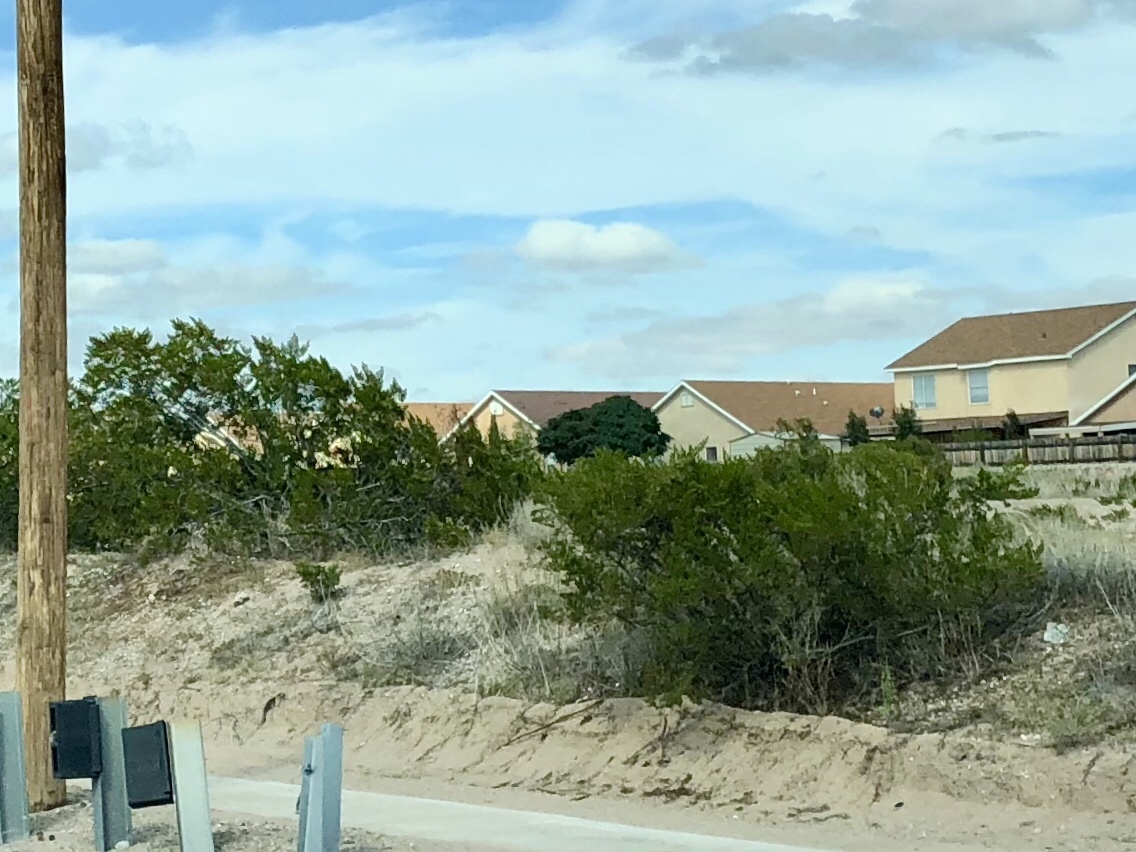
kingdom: Plantae
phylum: Tracheophyta
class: Magnoliopsida
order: Zygophyllales
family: Zygophyllaceae
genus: Larrea
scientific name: Larrea tridentata
